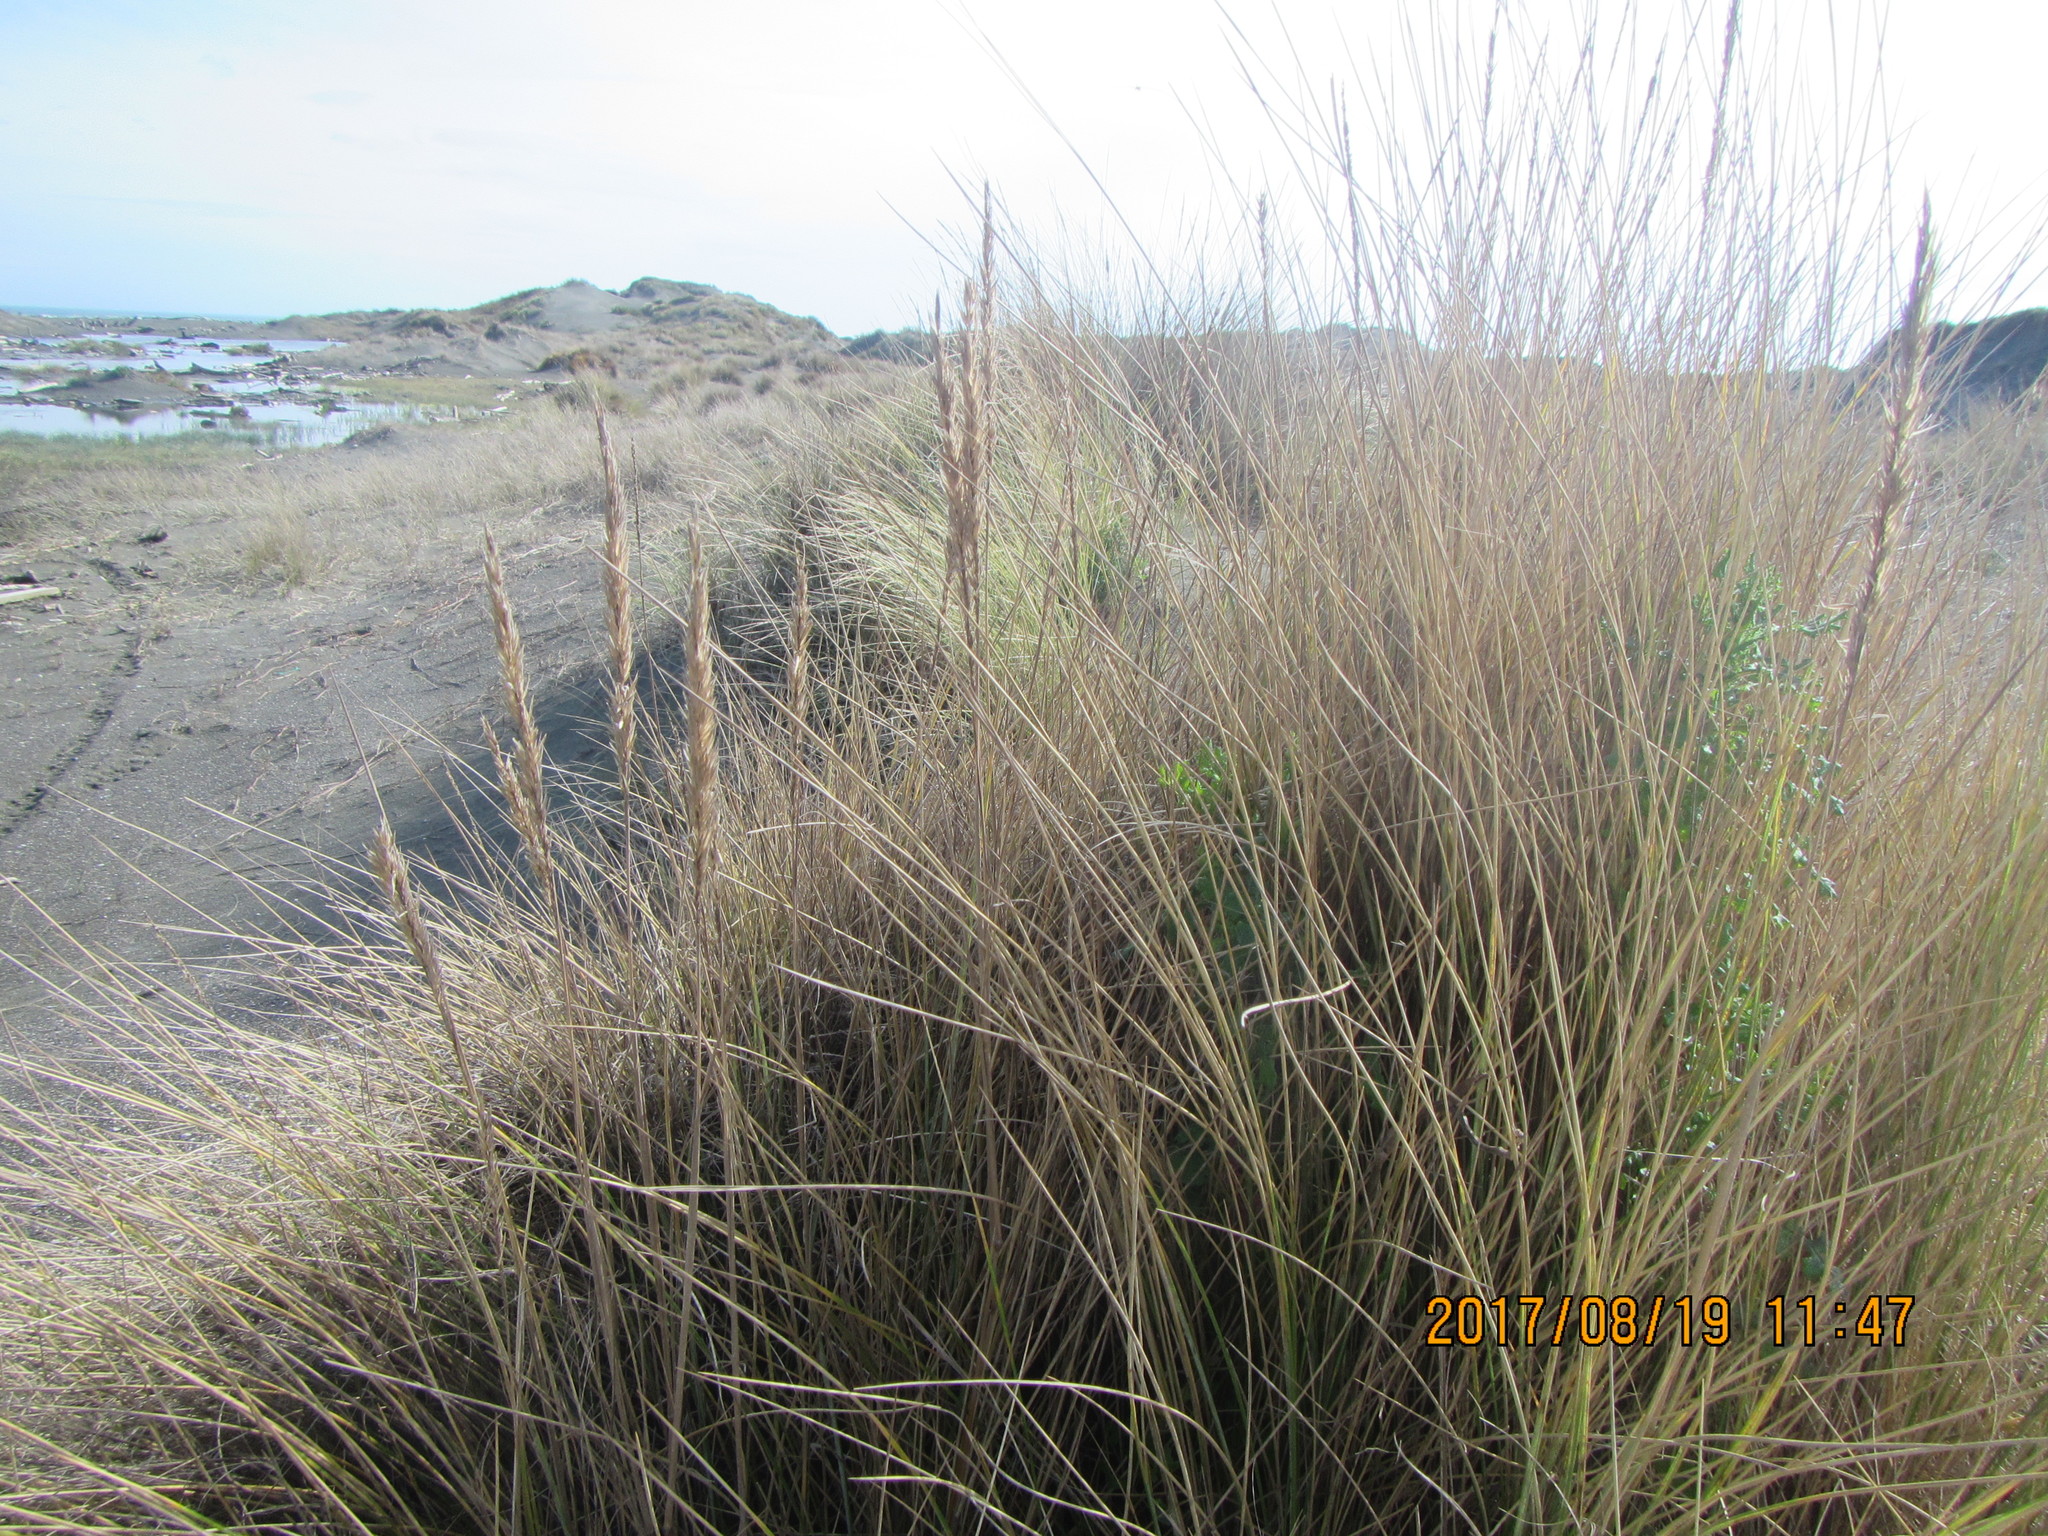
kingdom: Plantae
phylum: Tracheophyta
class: Liliopsida
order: Poales
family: Poaceae
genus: Calamagrostis
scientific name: Calamagrostis arenaria
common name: European beachgrass
